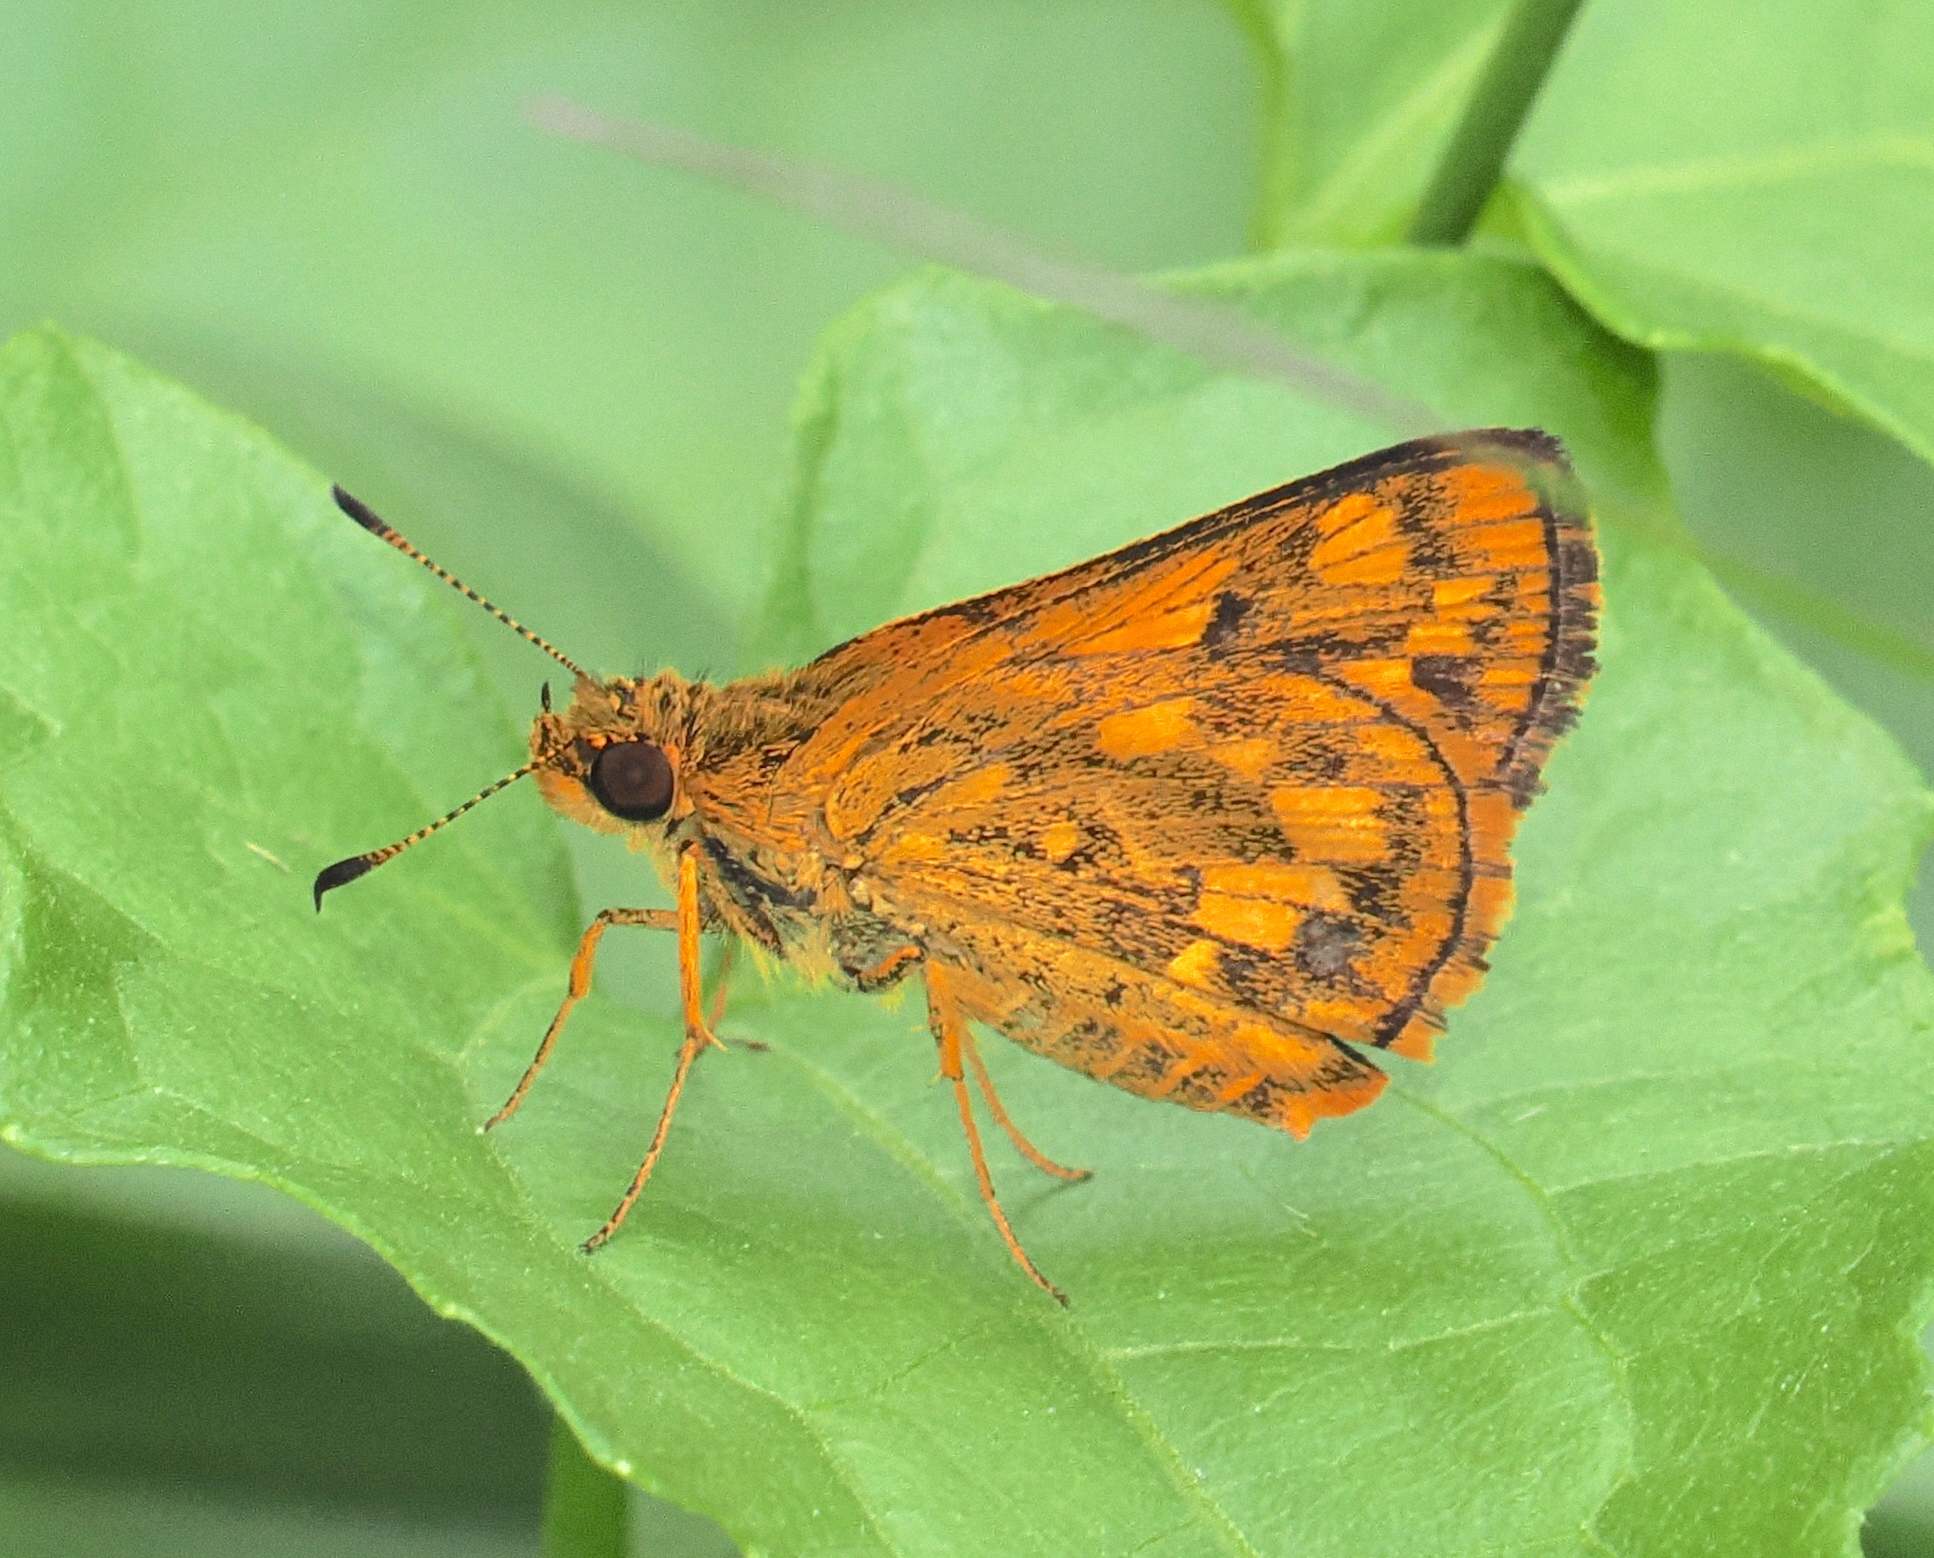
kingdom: Animalia
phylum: Arthropoda
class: Insecta
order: Lepidoptera
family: Hesperiidae
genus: Potanthus
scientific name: Potanthus omaha
